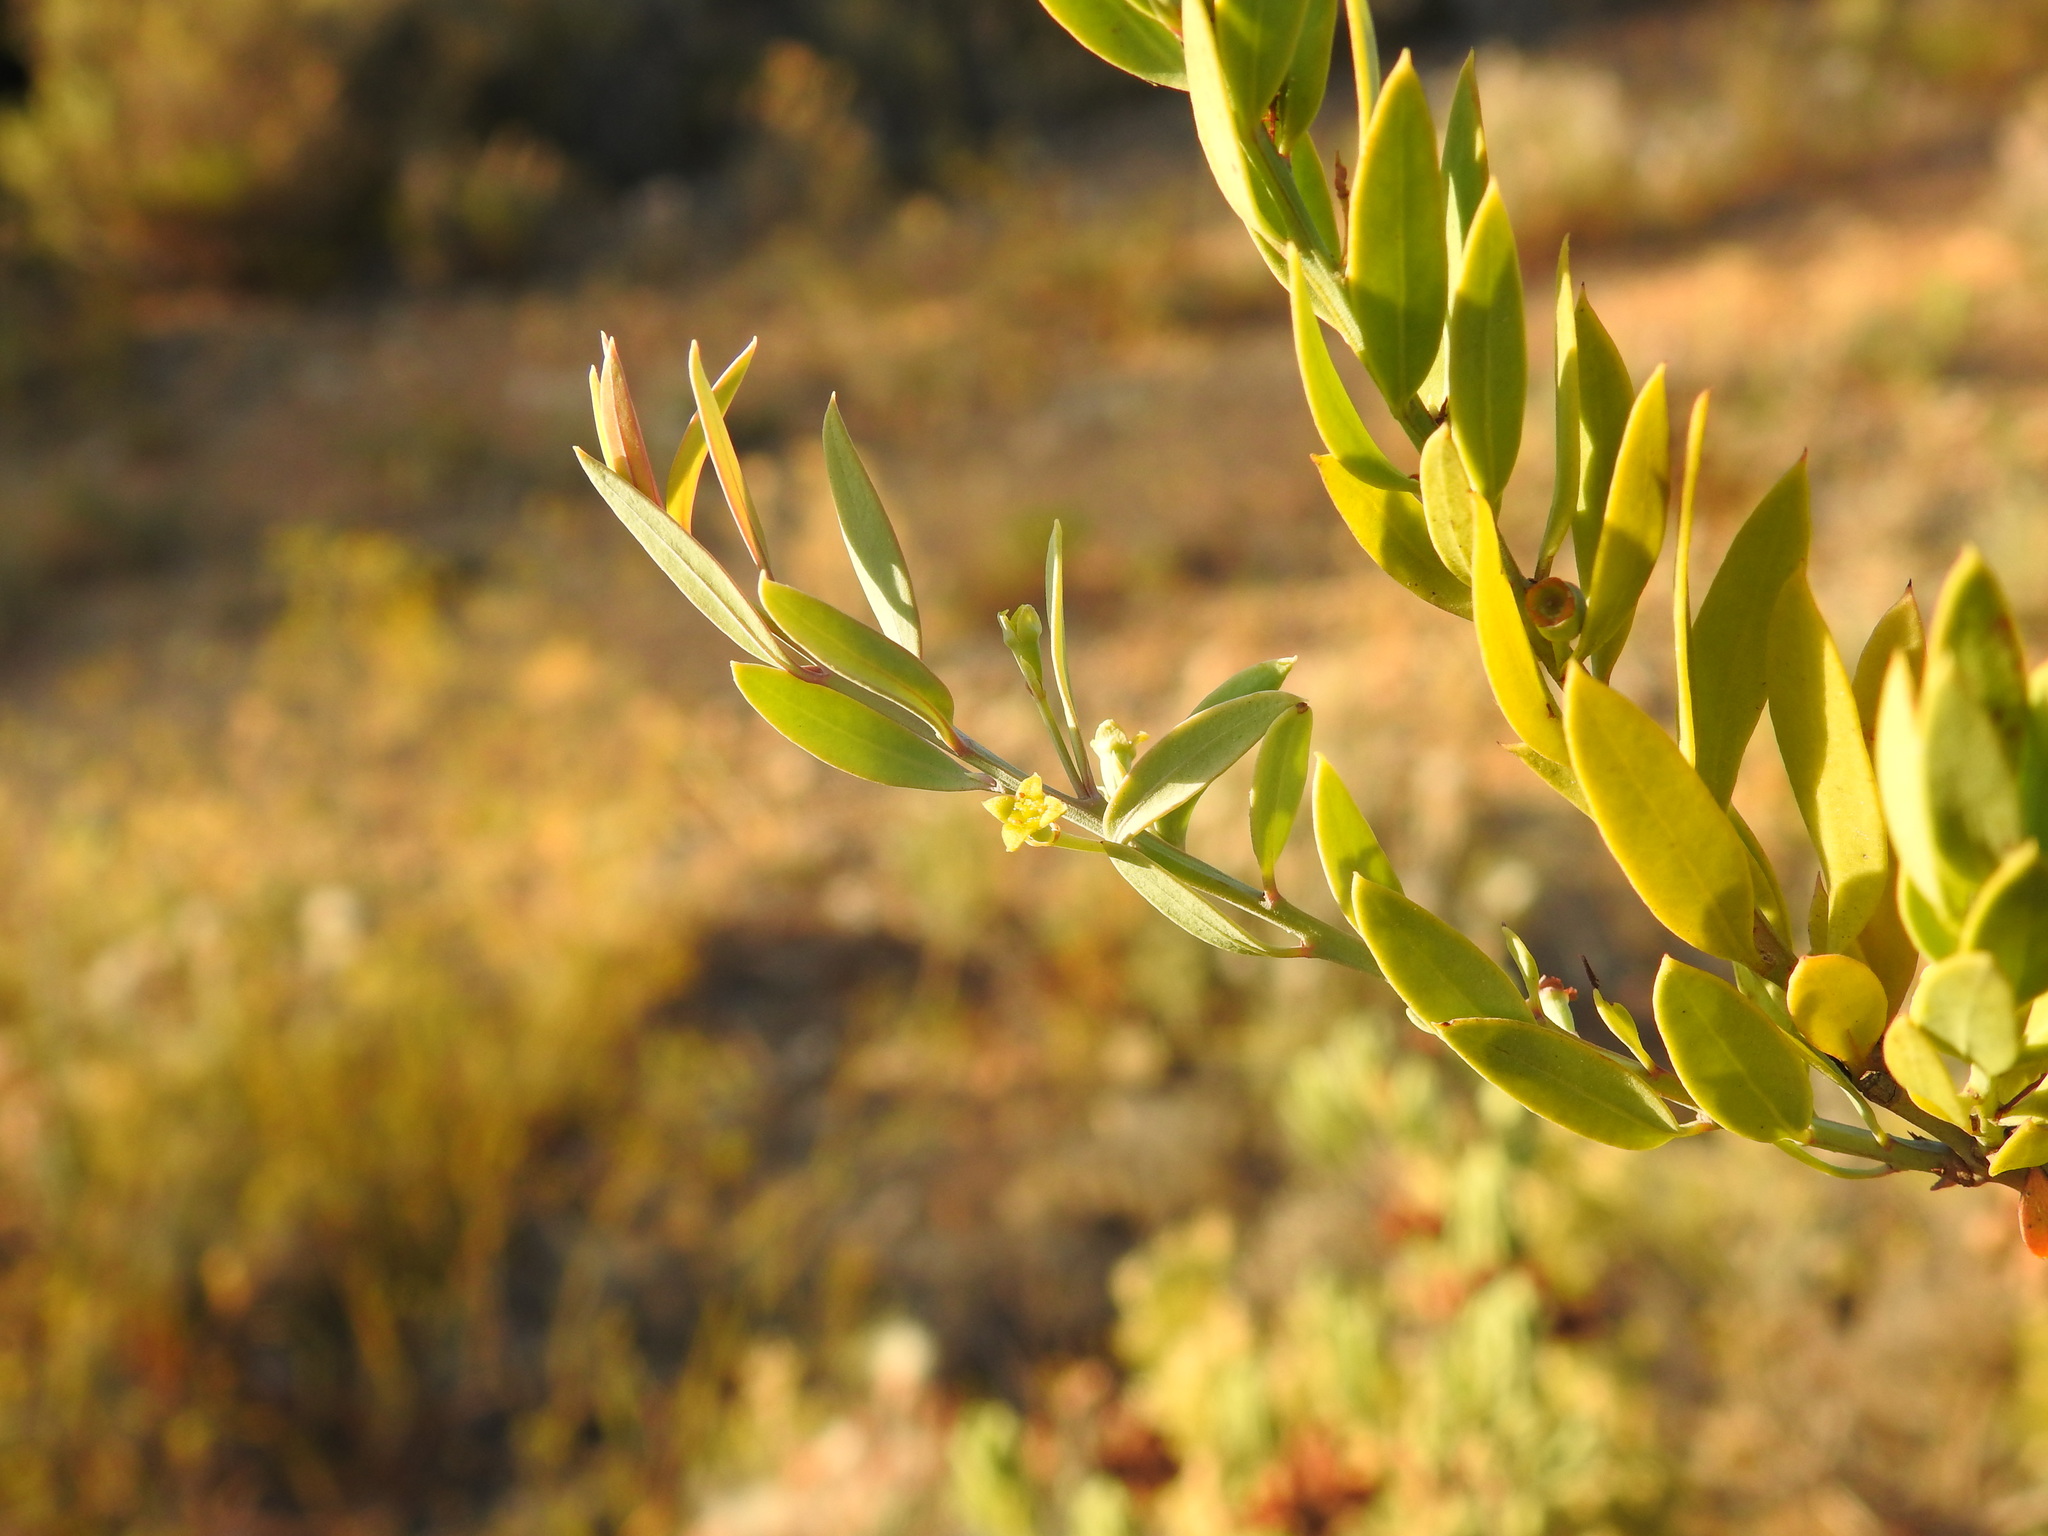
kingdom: Plantae
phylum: Tracheophyta
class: Magnoliopsida
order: Santalales
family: Santalaceae
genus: Osyris
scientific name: Osyris lanceolata
